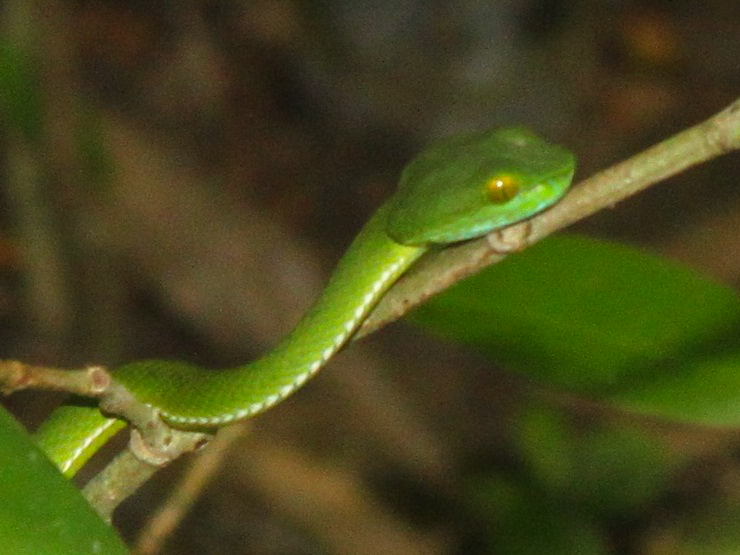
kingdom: Animalia
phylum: Chordata
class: Squamata
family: Viperidae
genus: Trimeresurus
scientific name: Trimeresurus cardamomensis
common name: Cardamom mountains green pitviper
